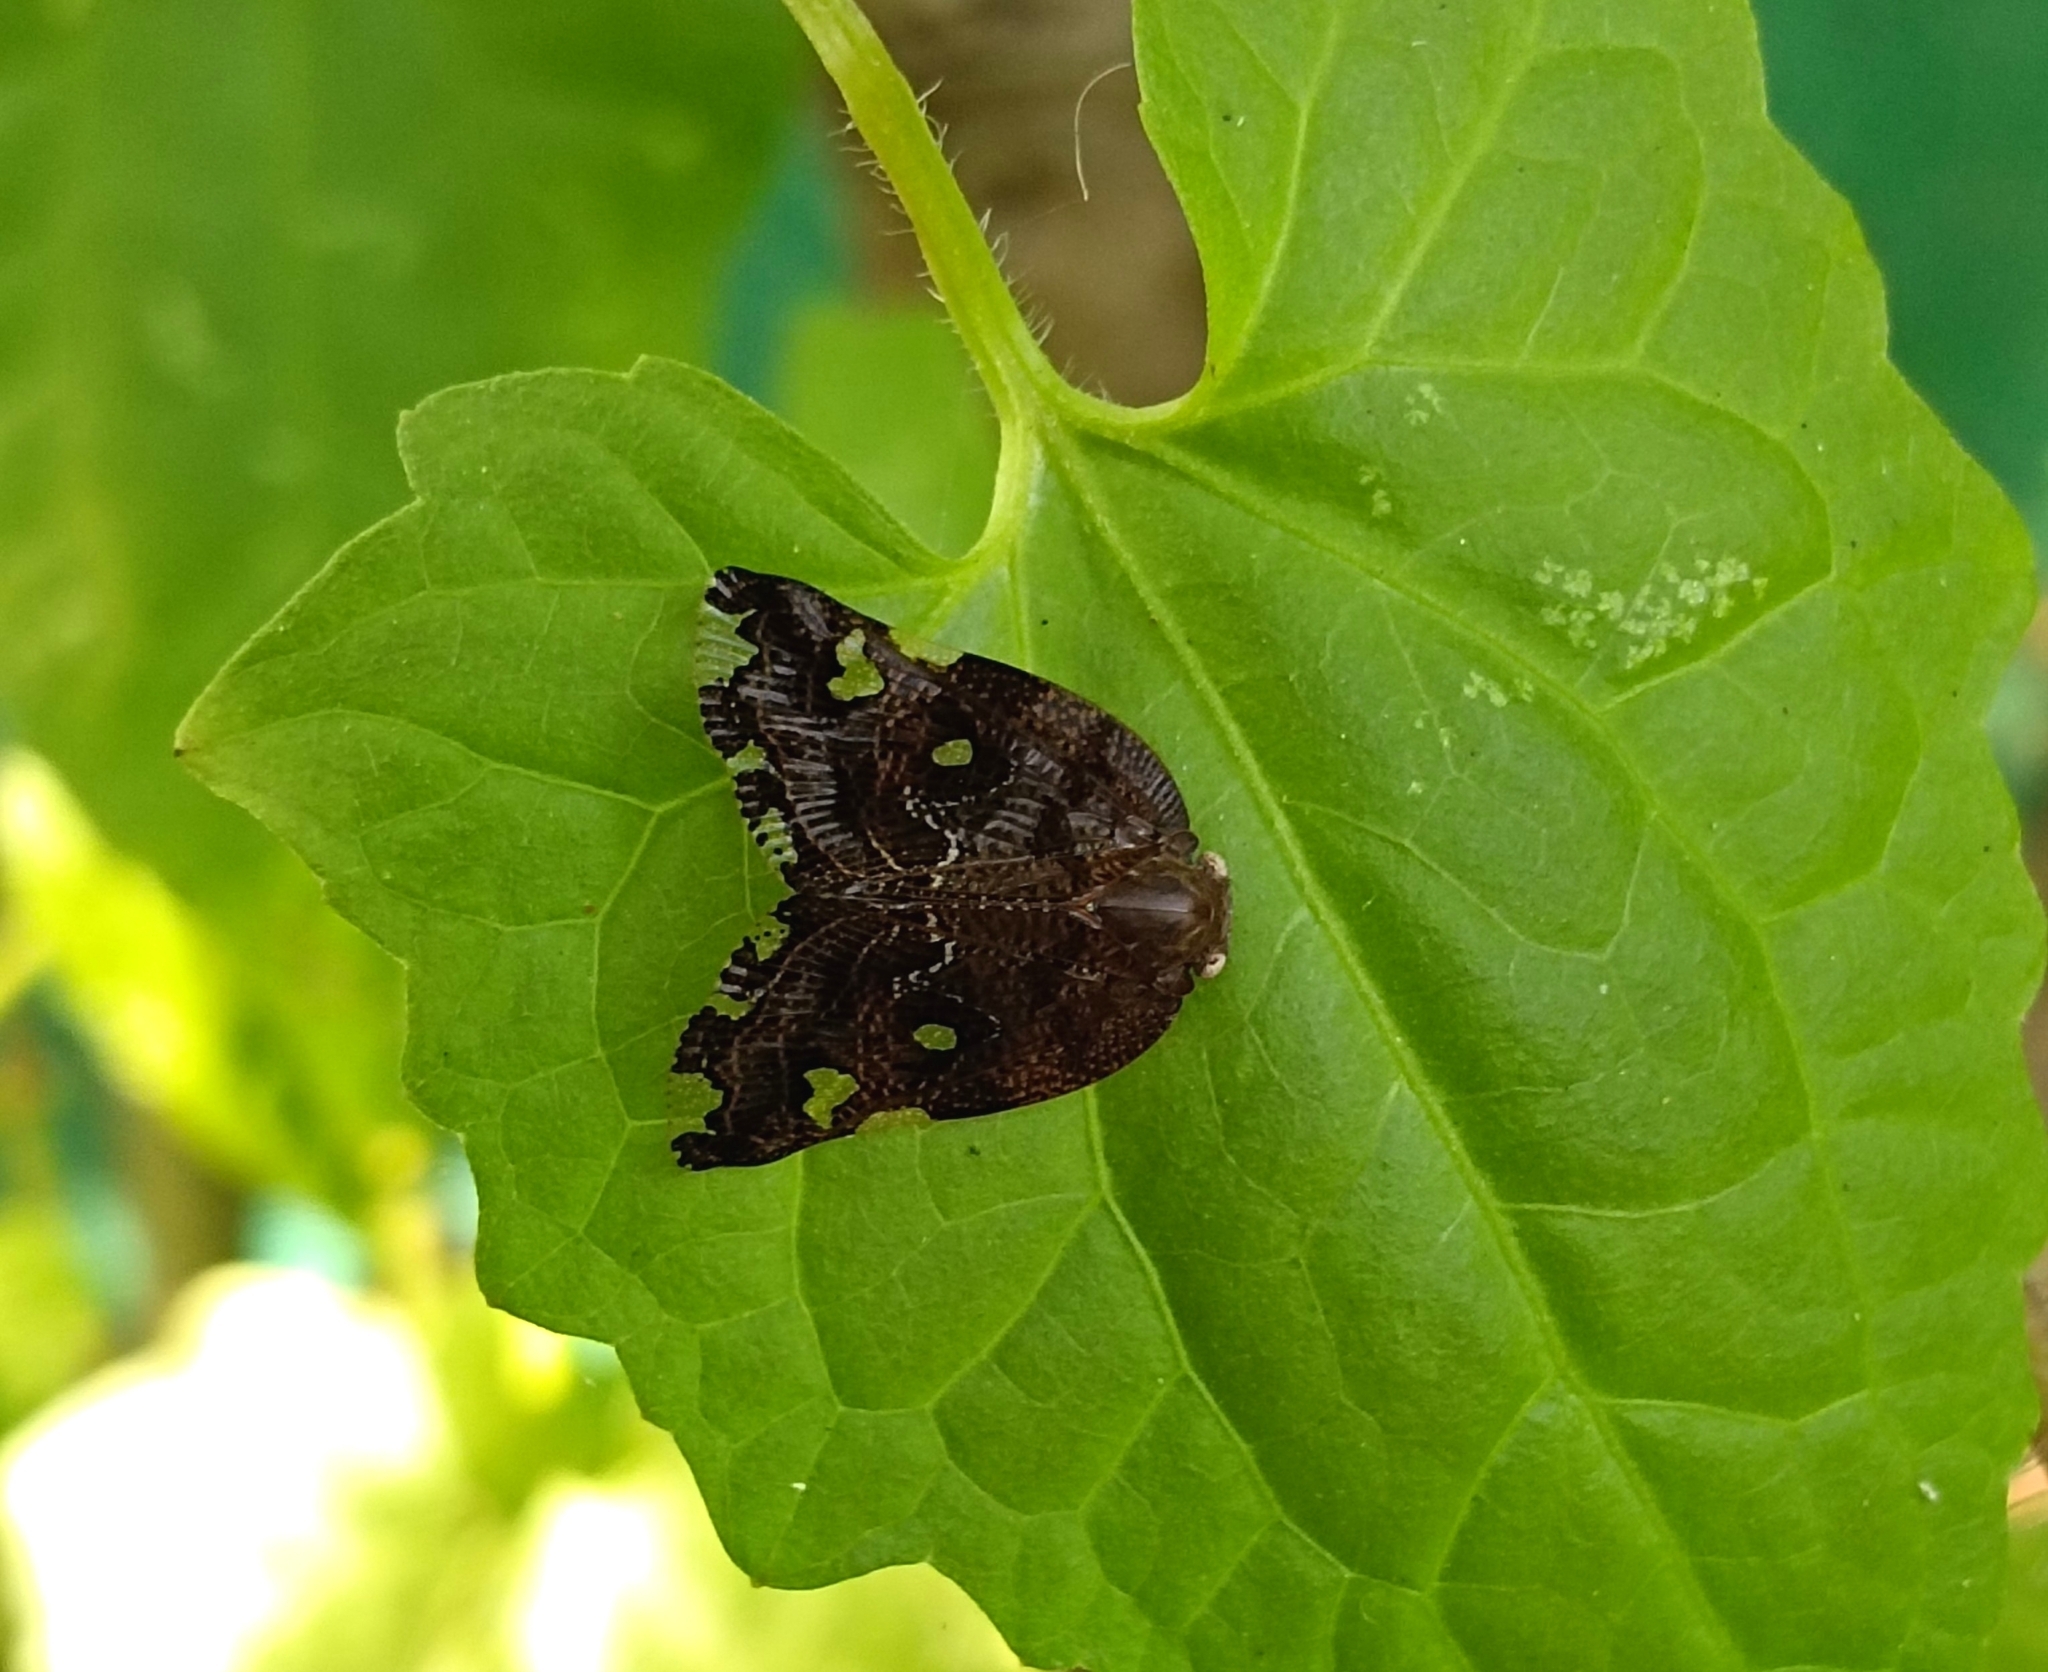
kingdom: Animalia
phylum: Arthropoda
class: Insecta
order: Hemiptera
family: Ricaniidae
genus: Ricania
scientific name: Ricania speculum
